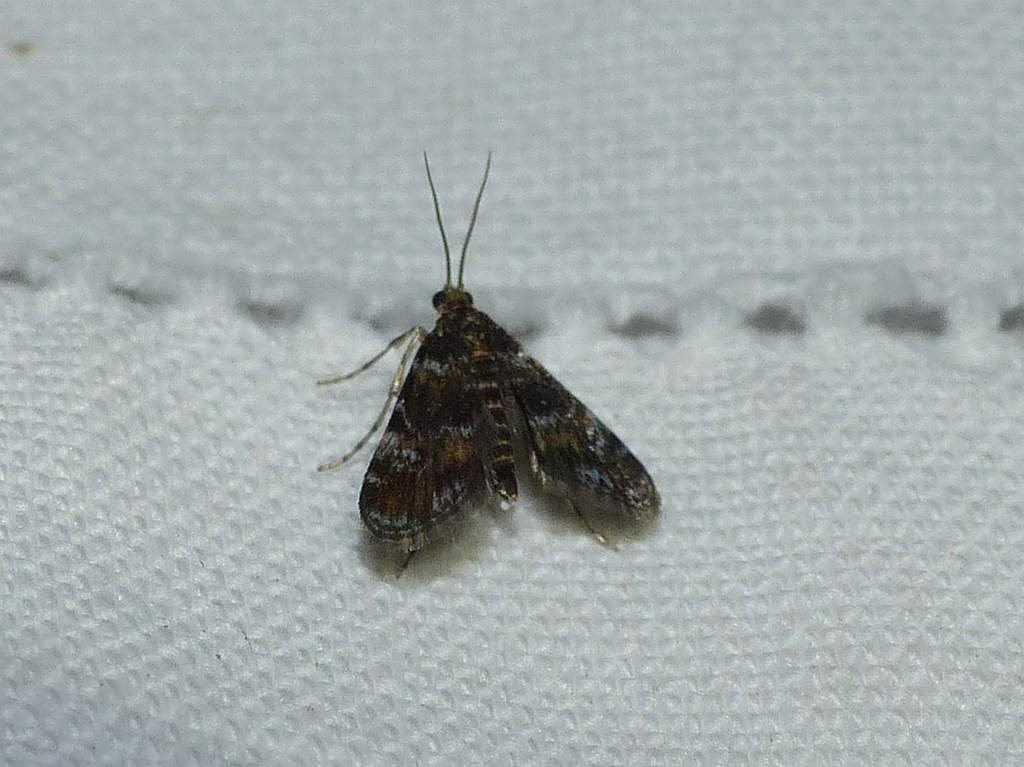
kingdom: Animalia
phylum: Arthropoda
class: Insecta
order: Lepidoptera
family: Crambidae
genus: Elophila
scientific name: Elophila obliteralis
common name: Waterlily leafcutter moth
